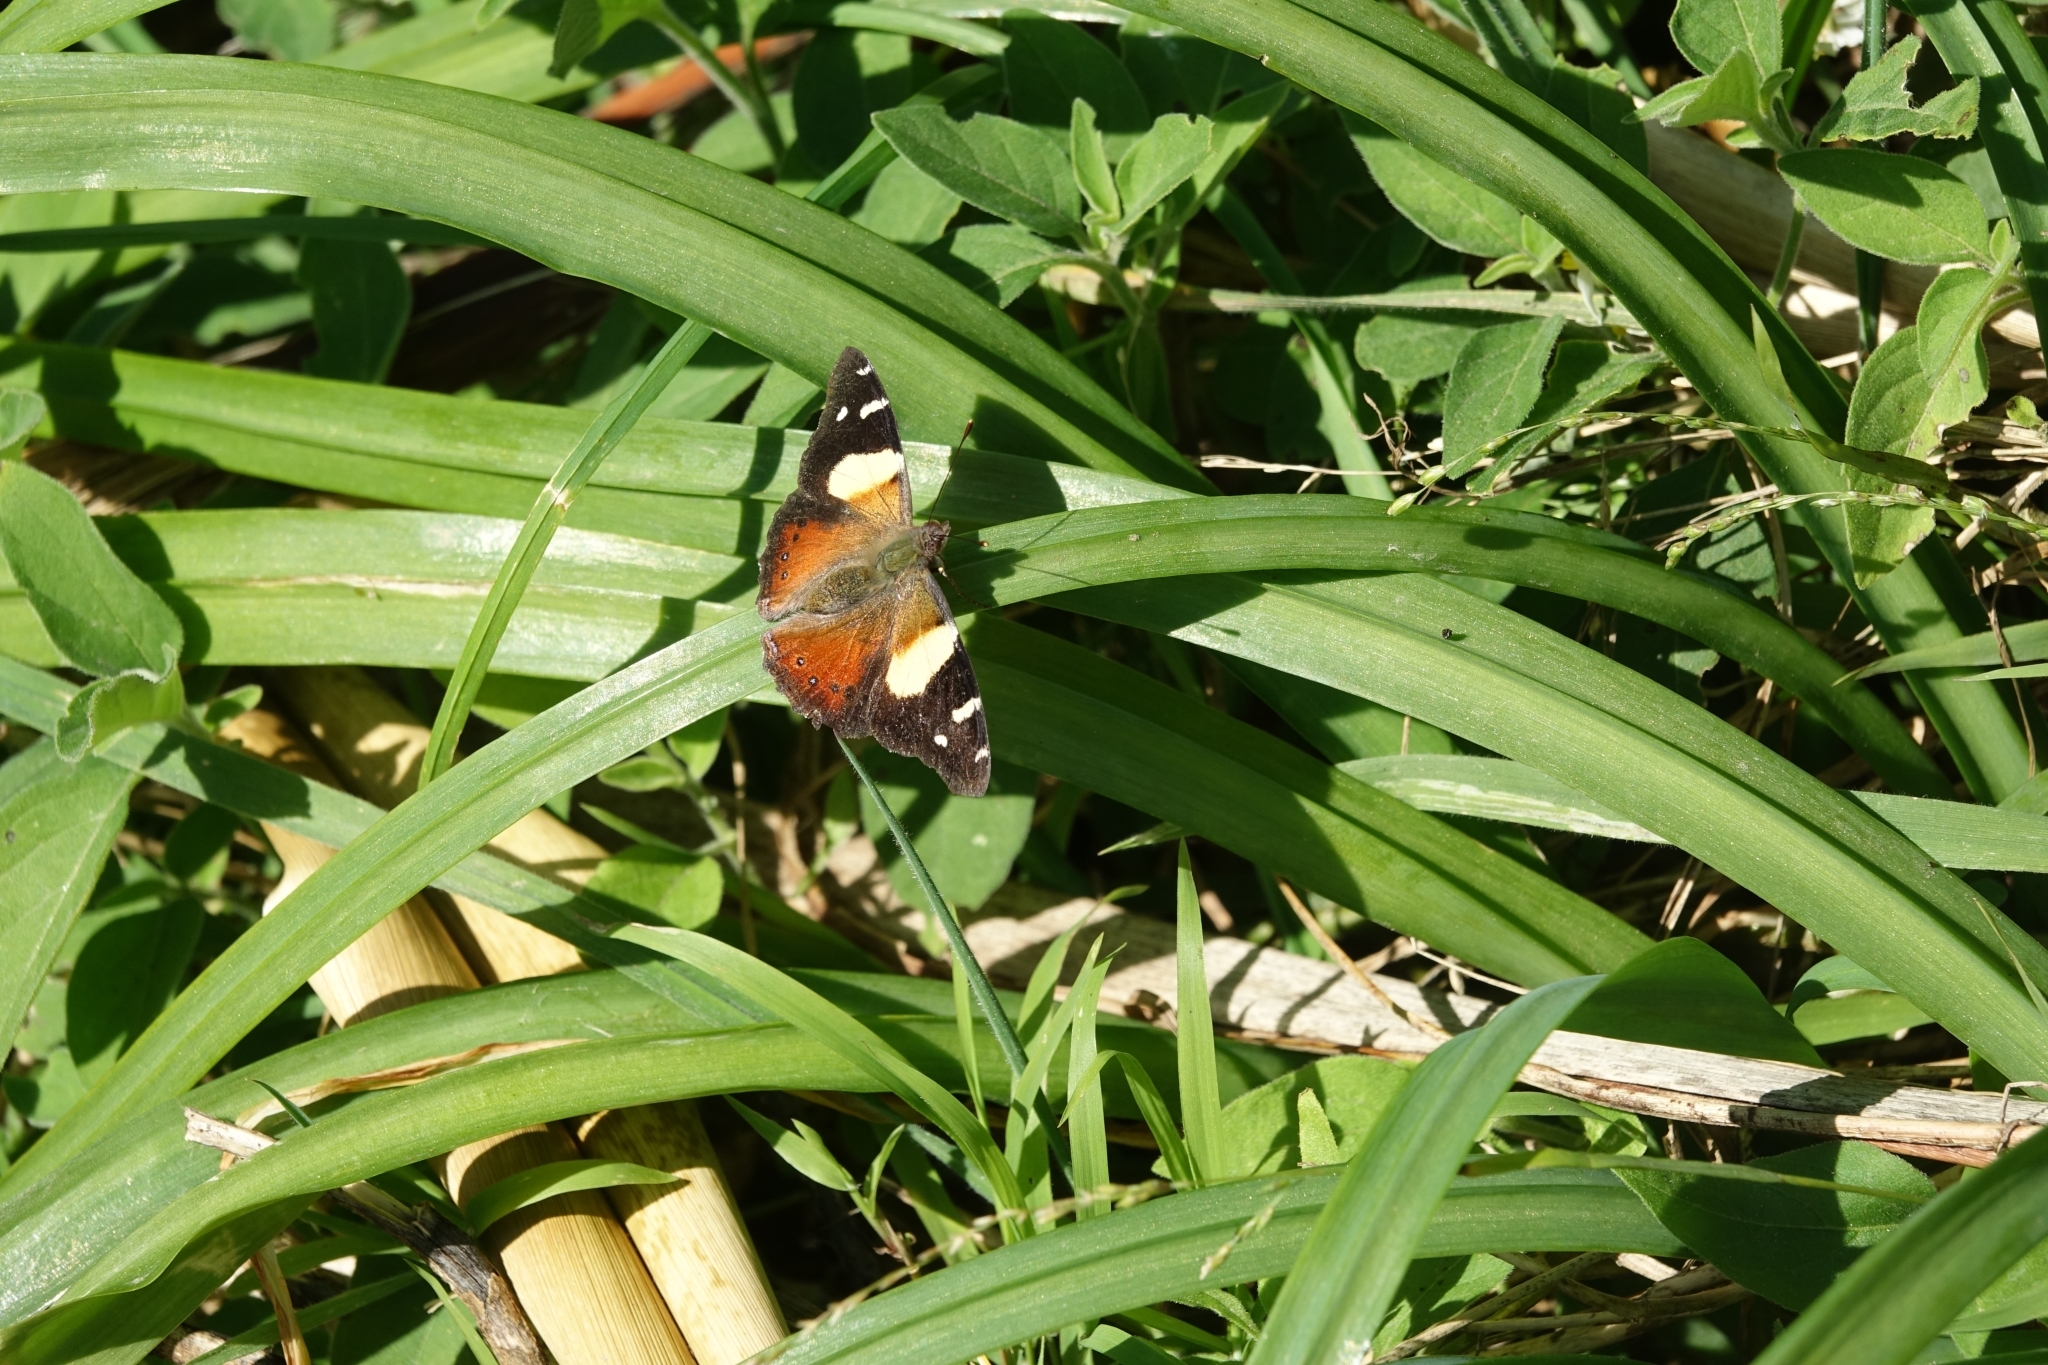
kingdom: Animalia
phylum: Arthropoda
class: Insecta
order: Lepidoptera
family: Nymphalidae
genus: Vanessa
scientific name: Vanessa itea
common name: Yellow admiral
